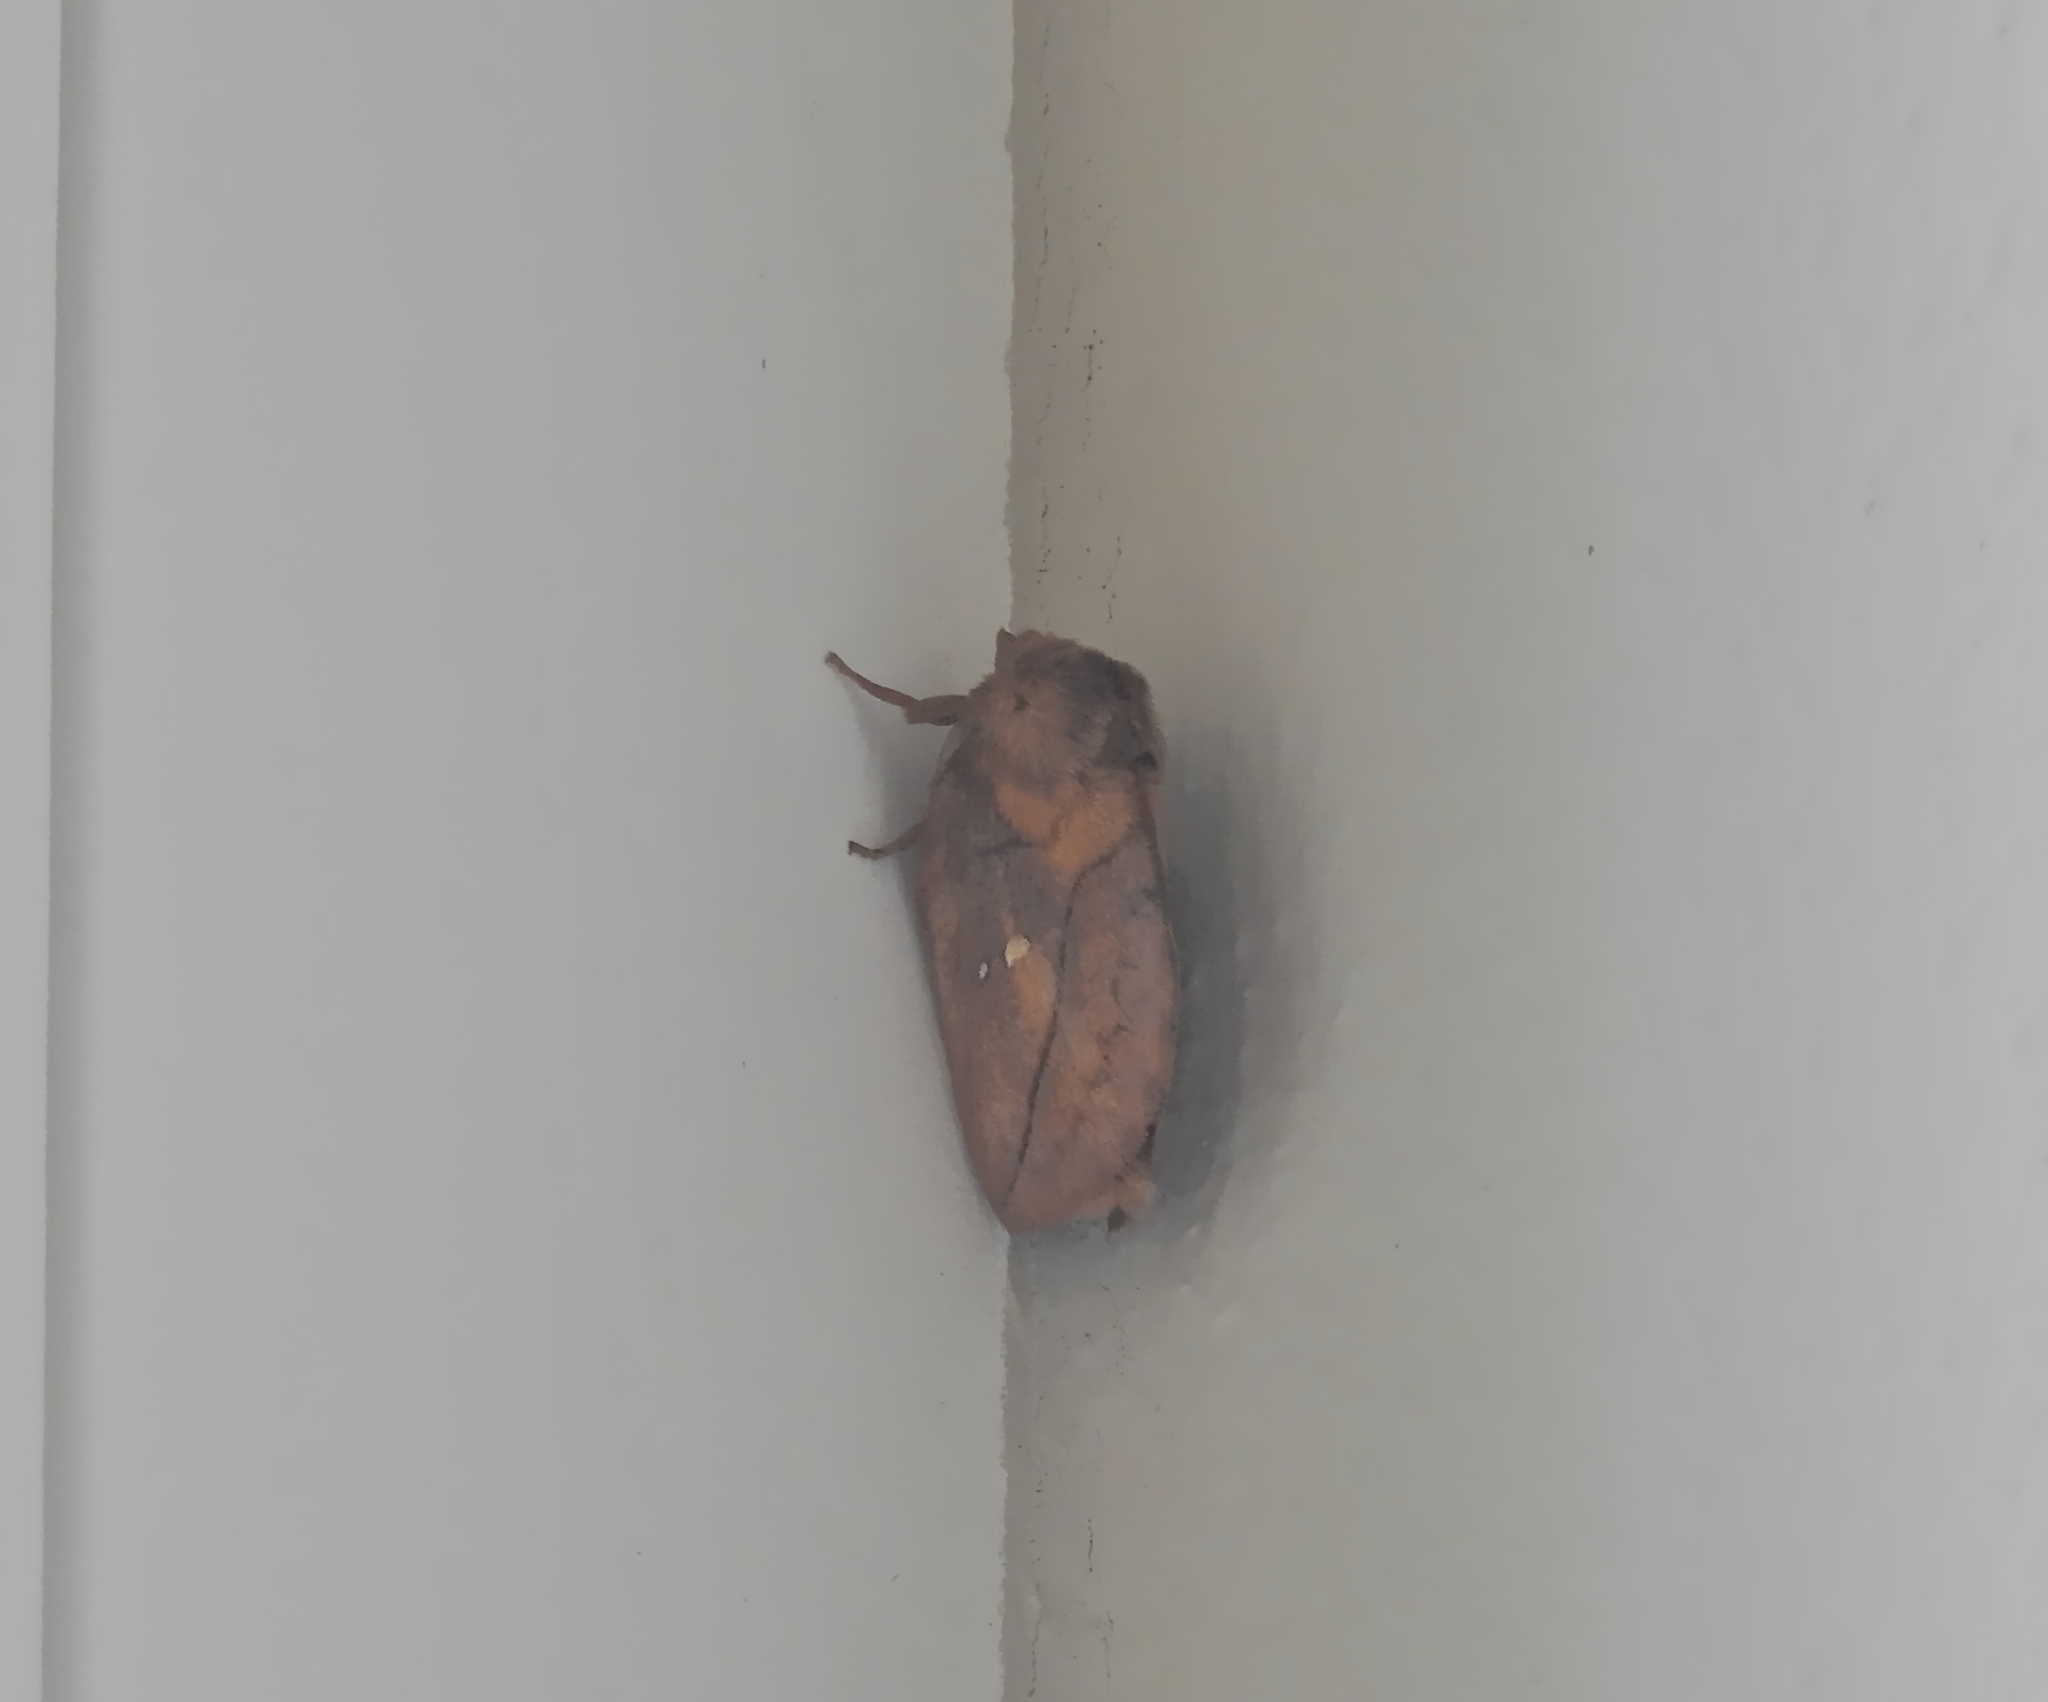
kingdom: Animalia
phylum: Arthropoda
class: Insecta
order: Lepidoptera
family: Lasiocampidae
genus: Euthrix
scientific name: Euthrix potatoria
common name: Drinker
